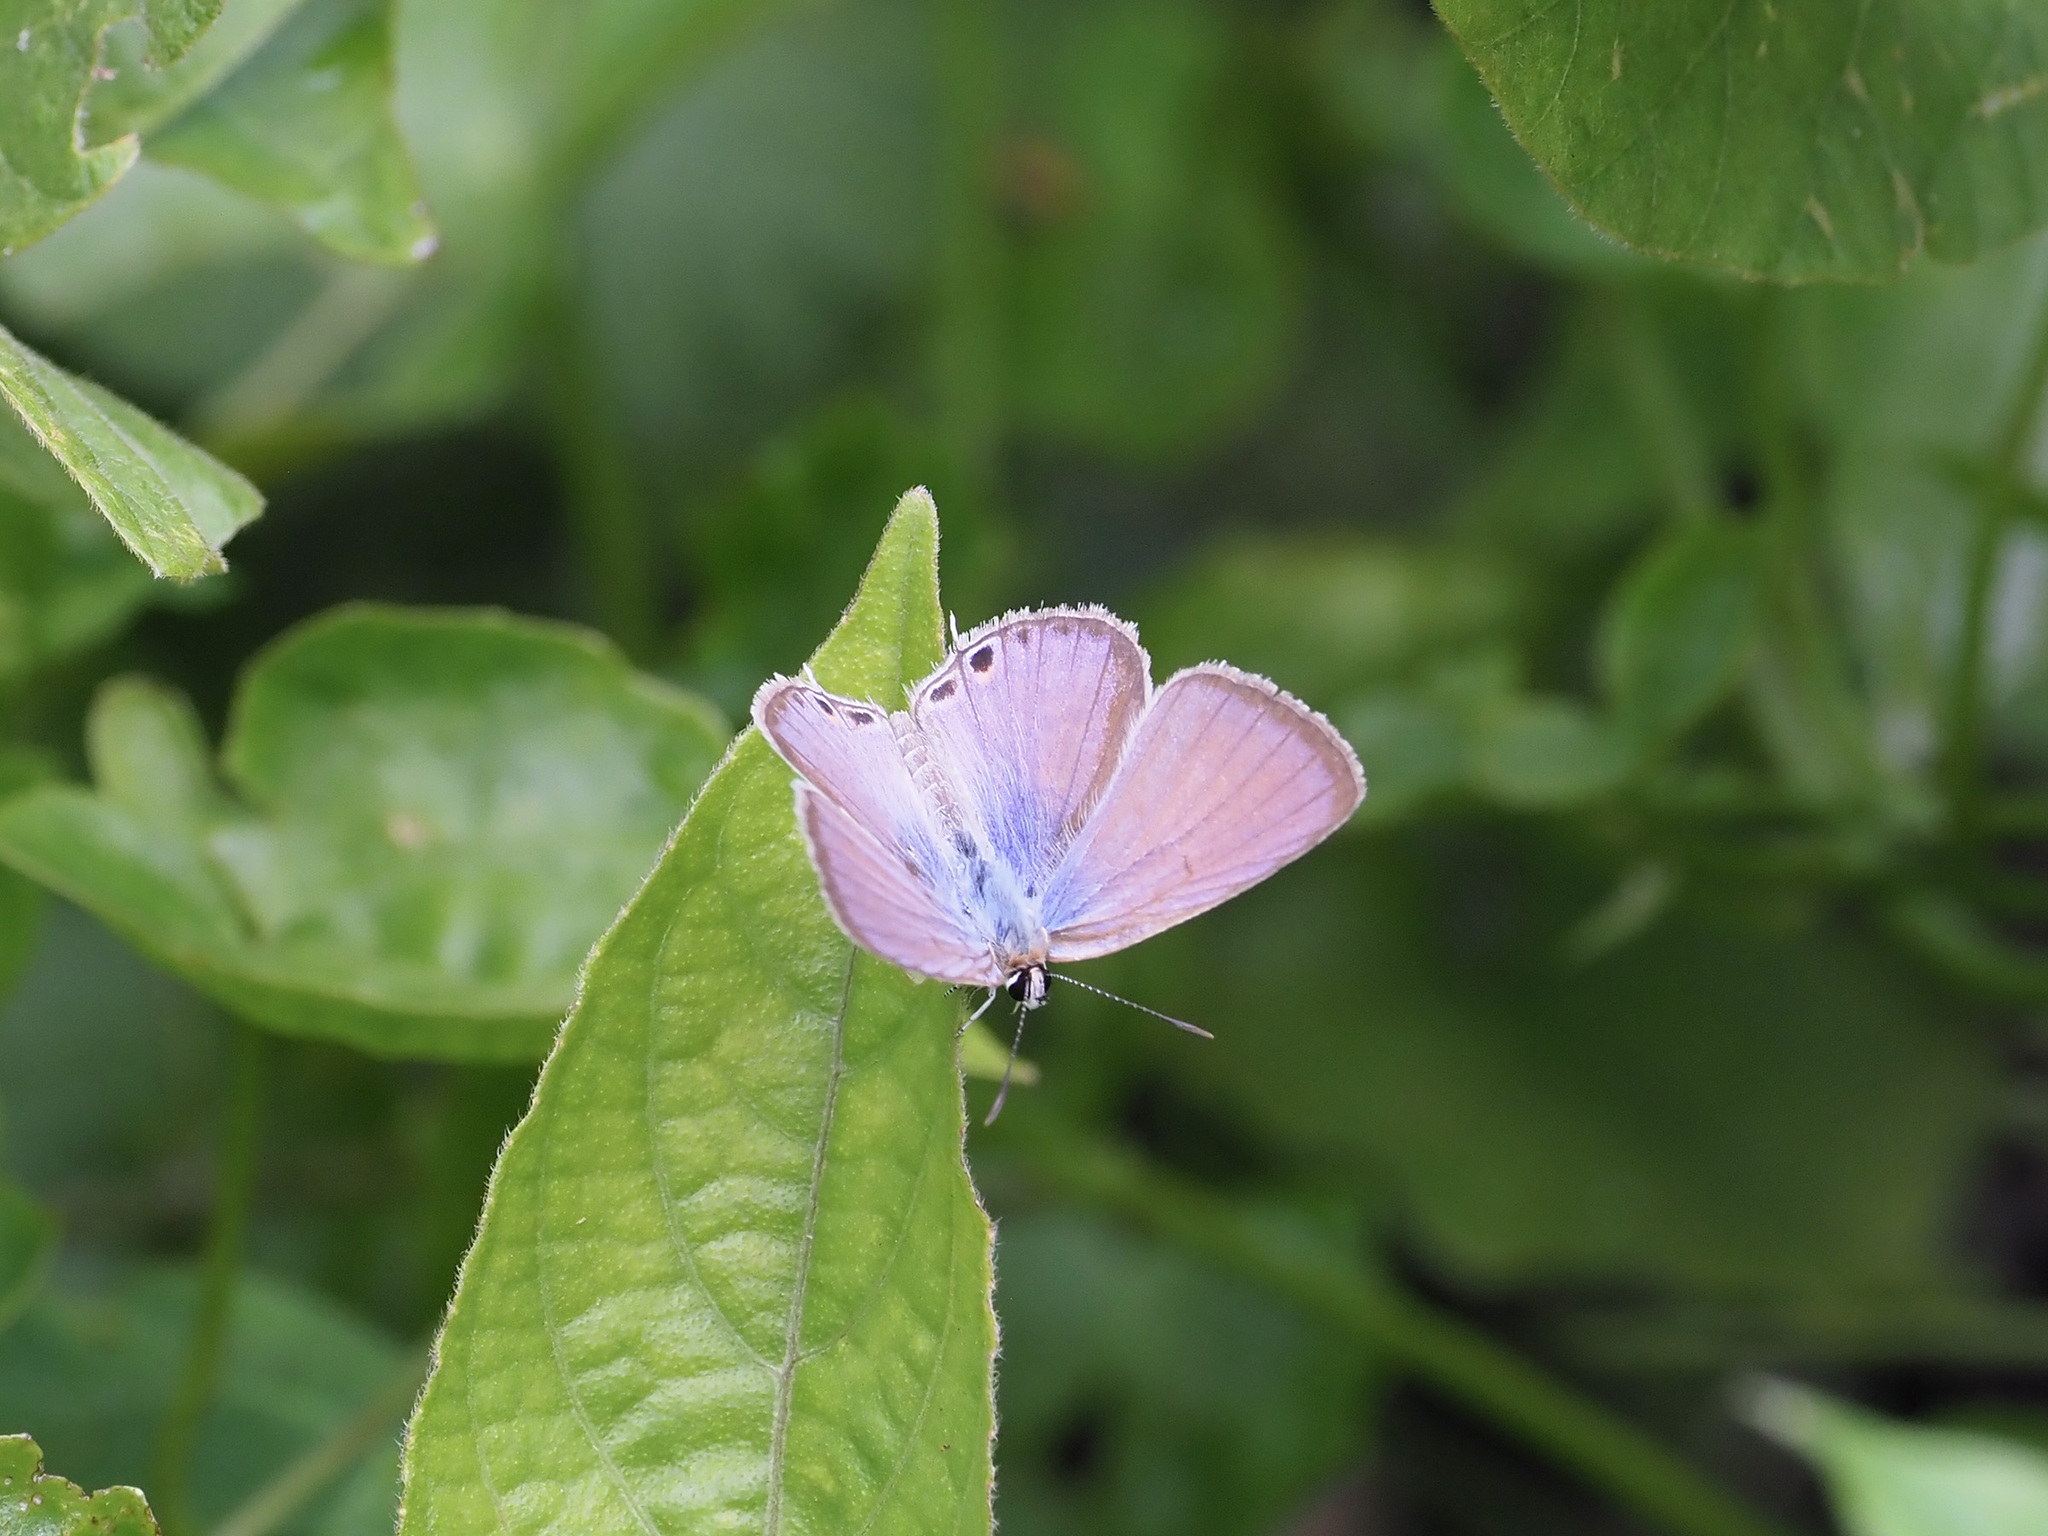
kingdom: Animalia
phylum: Arthropoda
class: Insecta
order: Lepidoptera
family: Lycaenidae
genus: Euchrysops
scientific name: Euchrysops cnejus
